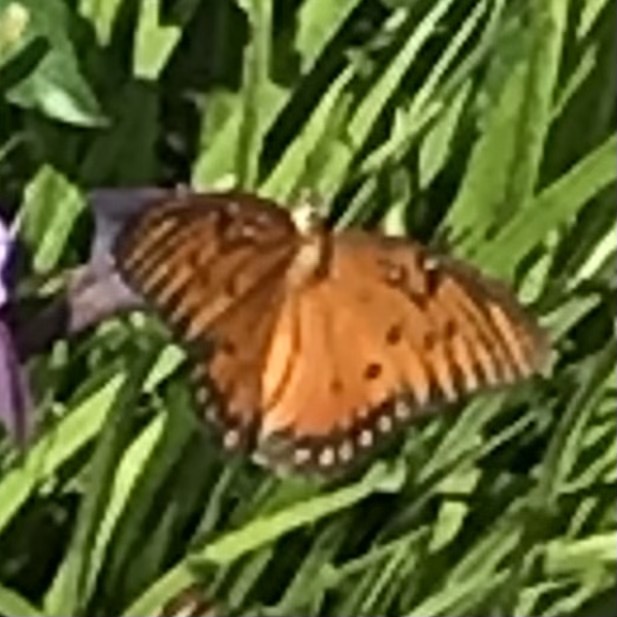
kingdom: Animalia
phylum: Arthropoda
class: Insecta
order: Lepidoptera
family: Nymphalidae
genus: Dione
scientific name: Dione vanillae
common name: Gulf fritillary
